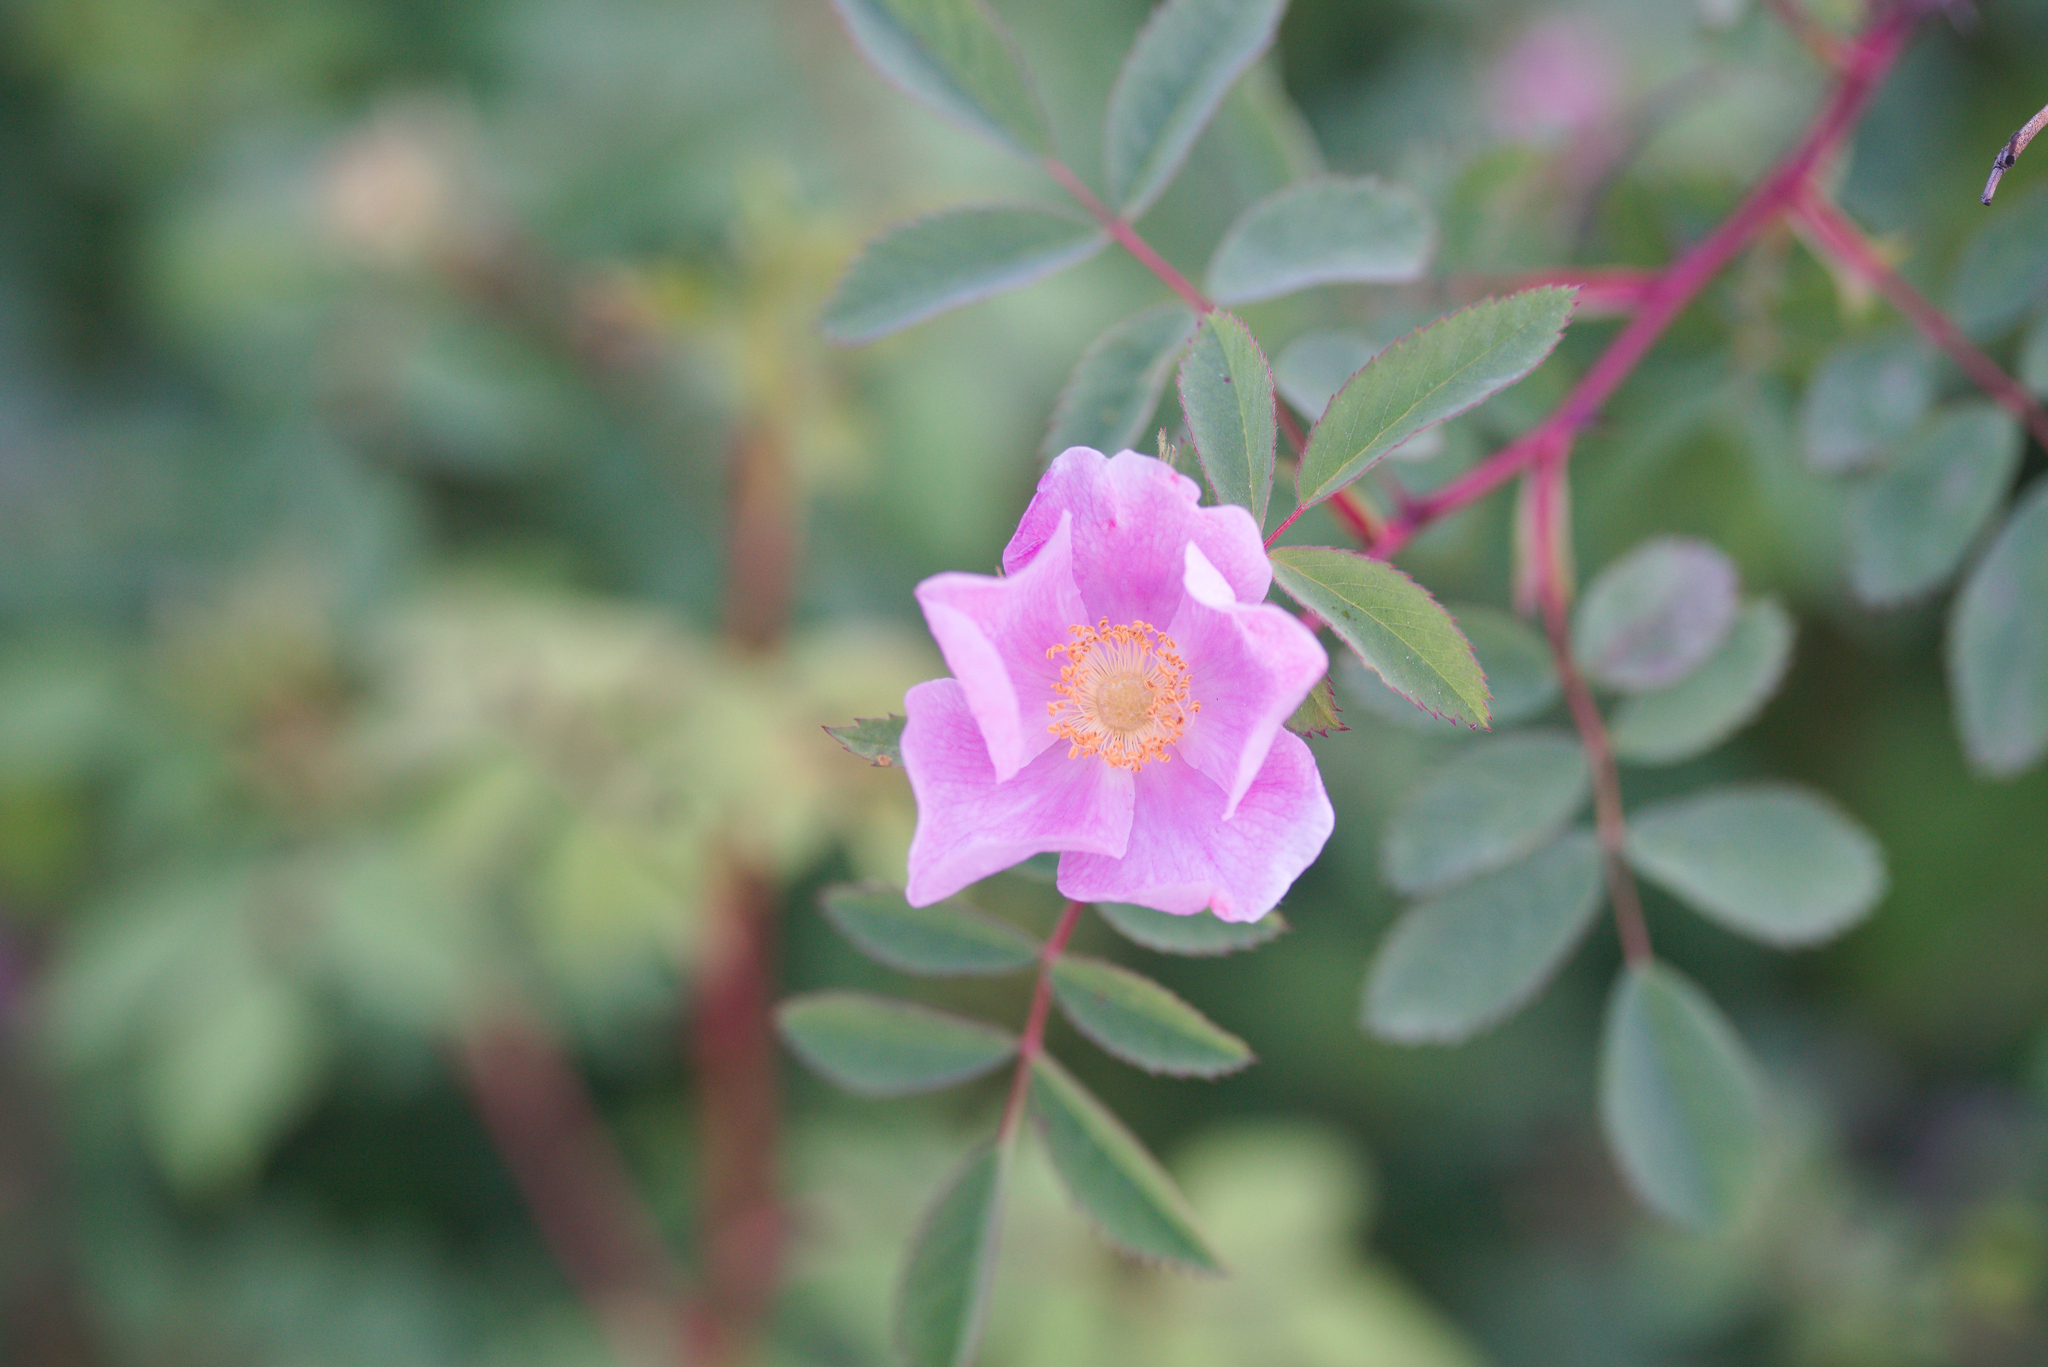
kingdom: Plantae
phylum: Tracheophyta
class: Magnoliopsida
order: Rosales
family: Rosaceae
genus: Rosa
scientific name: Rosa californica
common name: California rose
